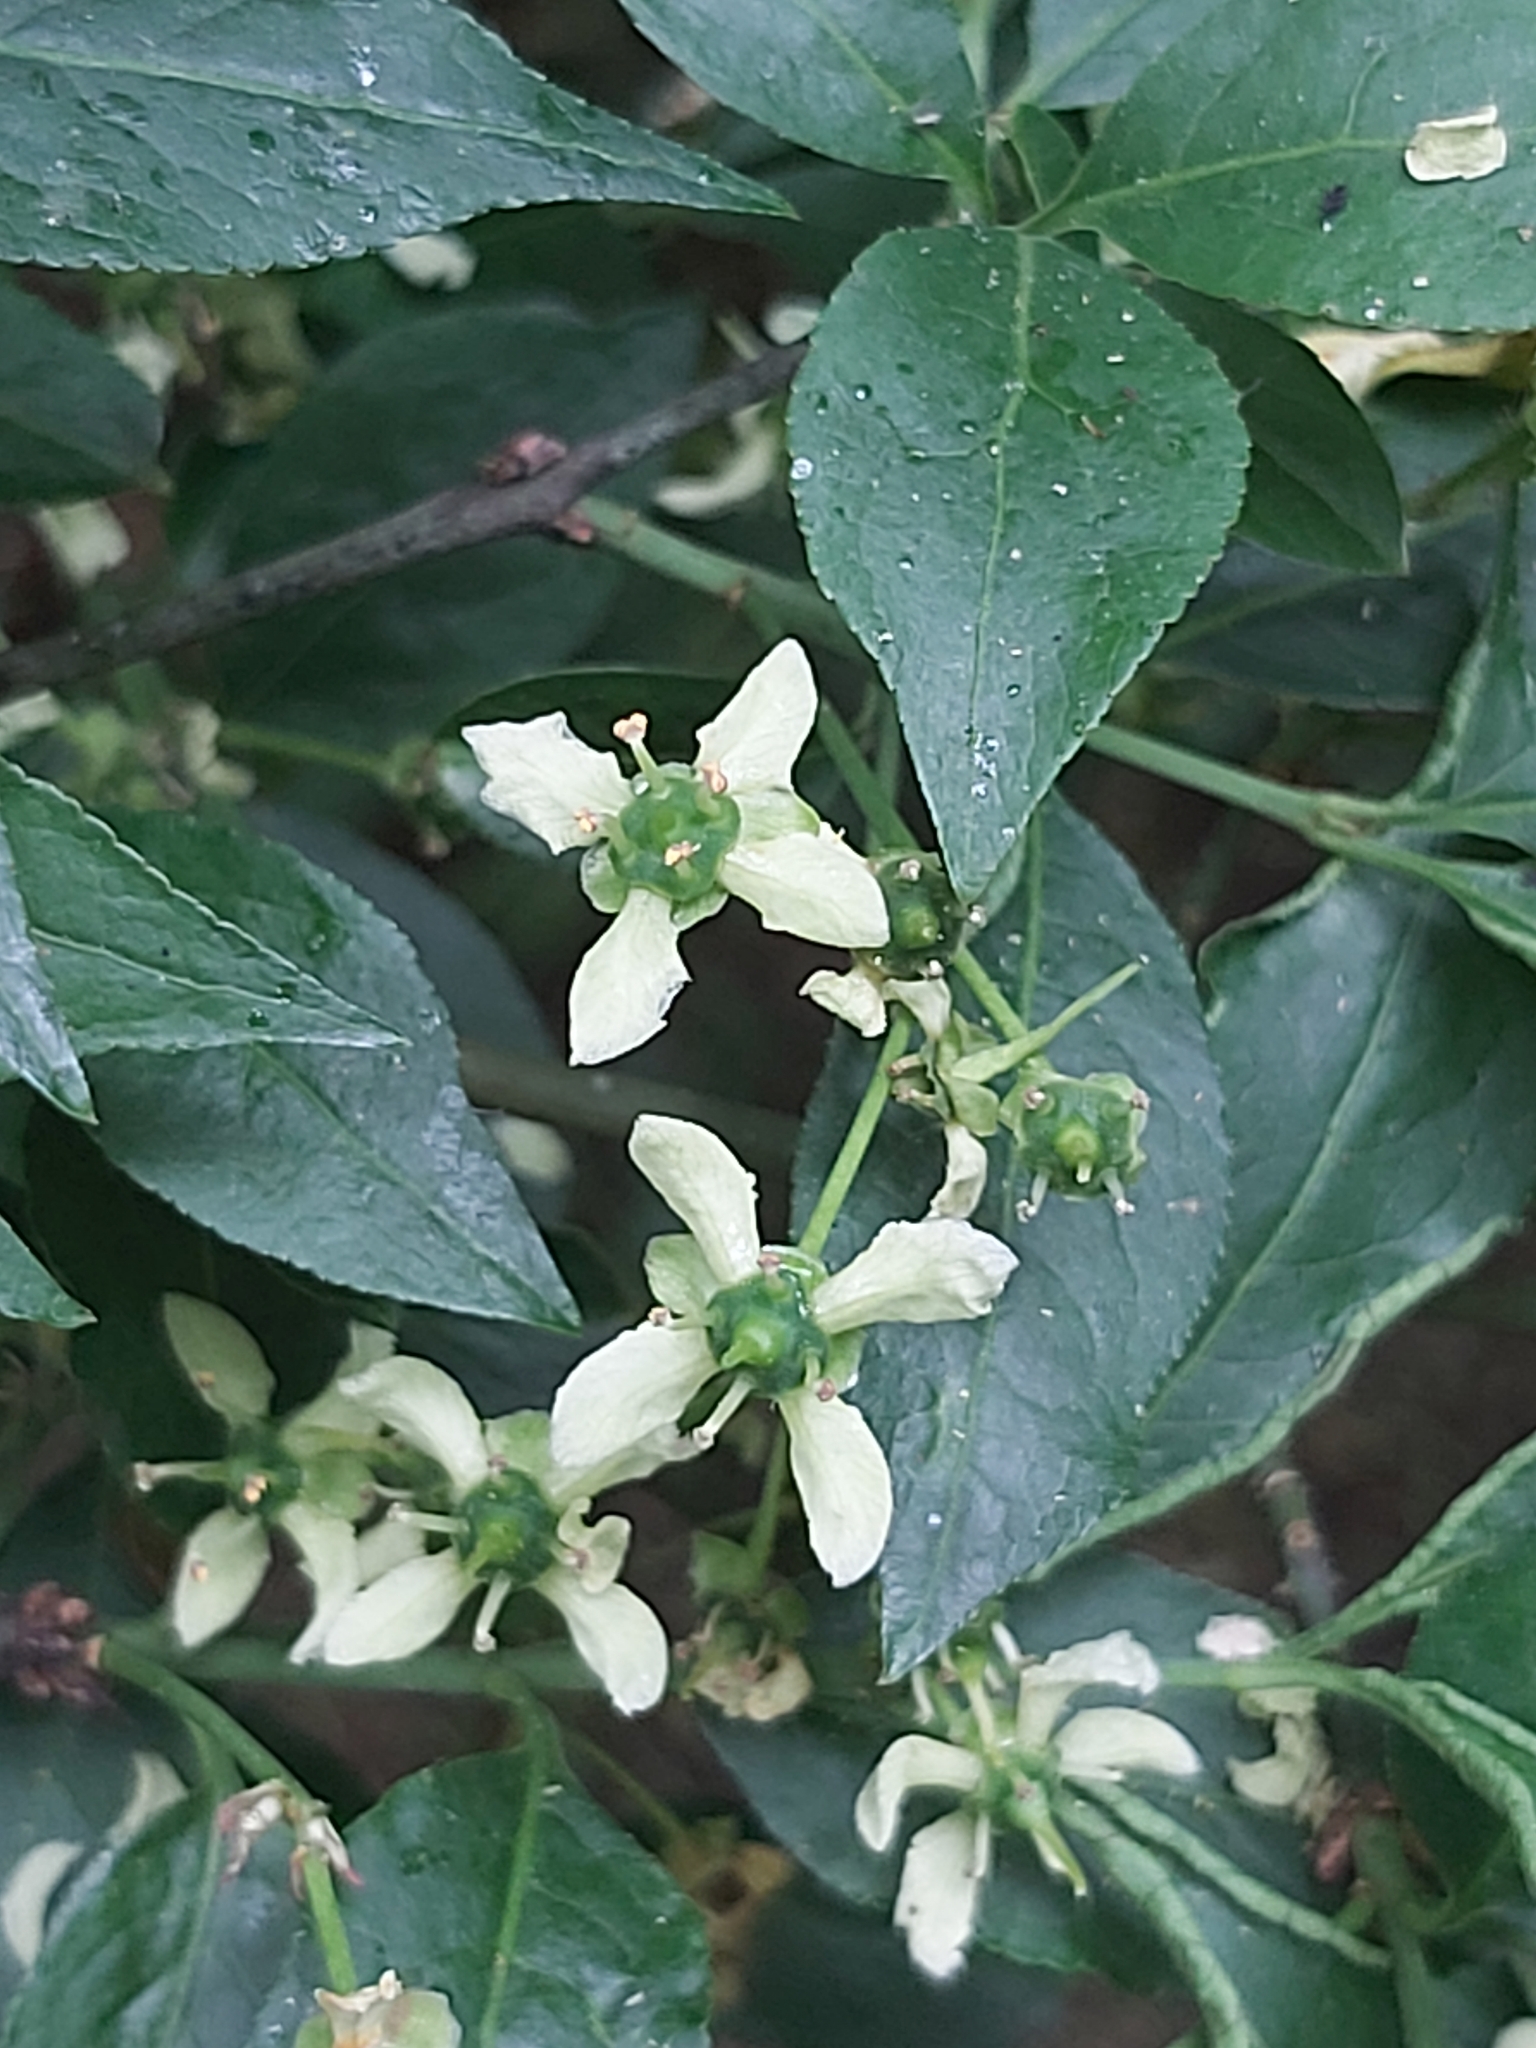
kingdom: Plantae
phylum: Tracheophyta
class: Magnoliopsida
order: Celastrales
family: Celastraceae
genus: Euonymus
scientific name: Euonymus europaeus
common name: Spindle
